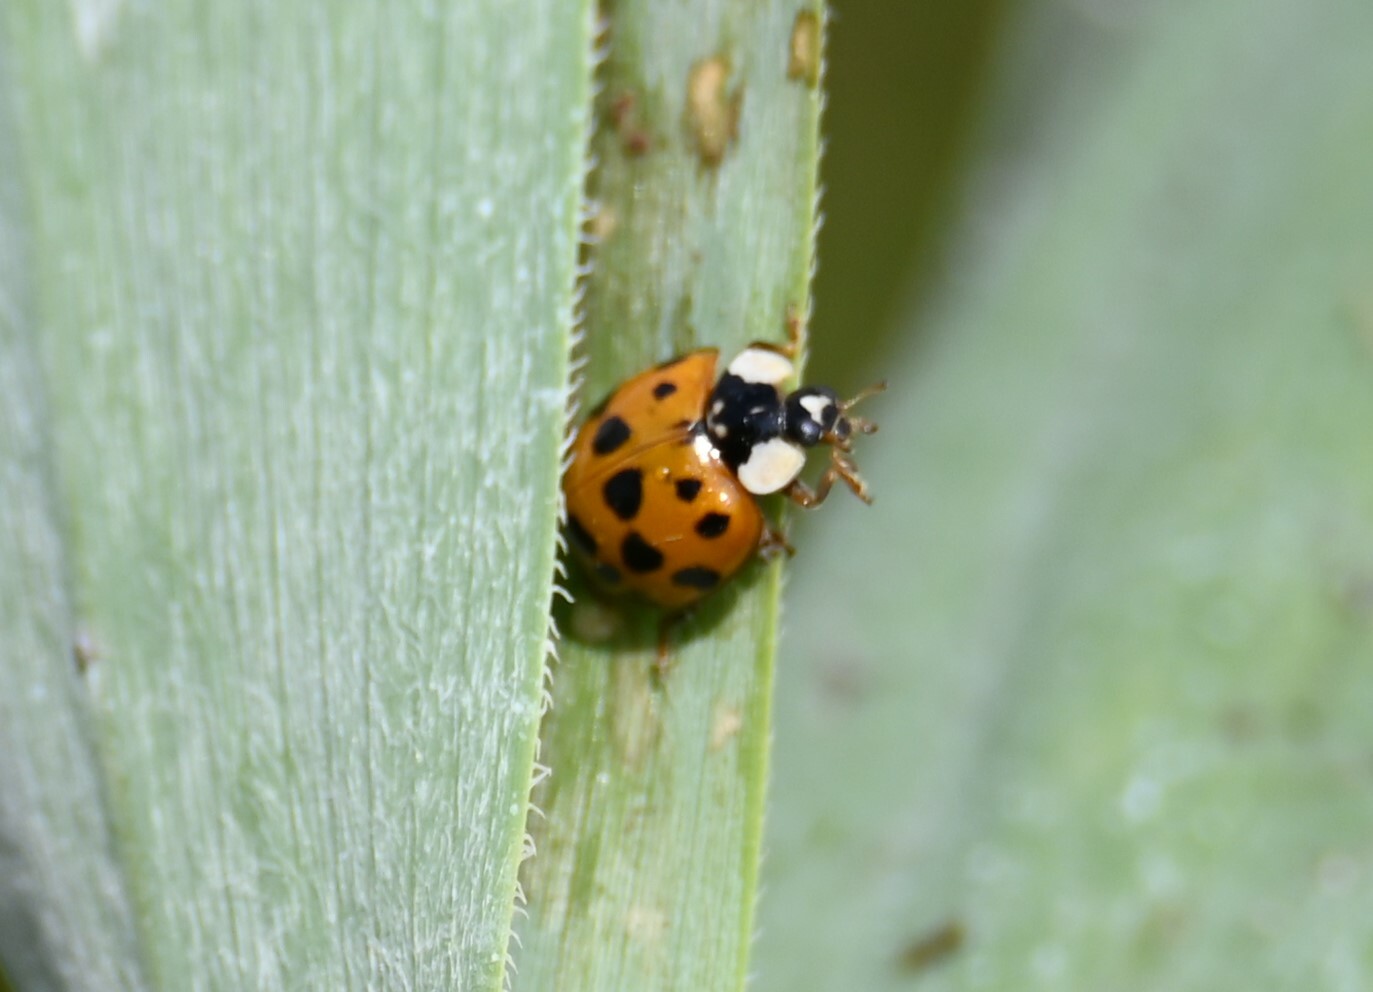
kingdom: Animalia
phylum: Arthropoda
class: Insecta
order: Coleoptera
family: Coccinellidae
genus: Harmonia
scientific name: Harmonia axyridis
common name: Harlequin ladybird
